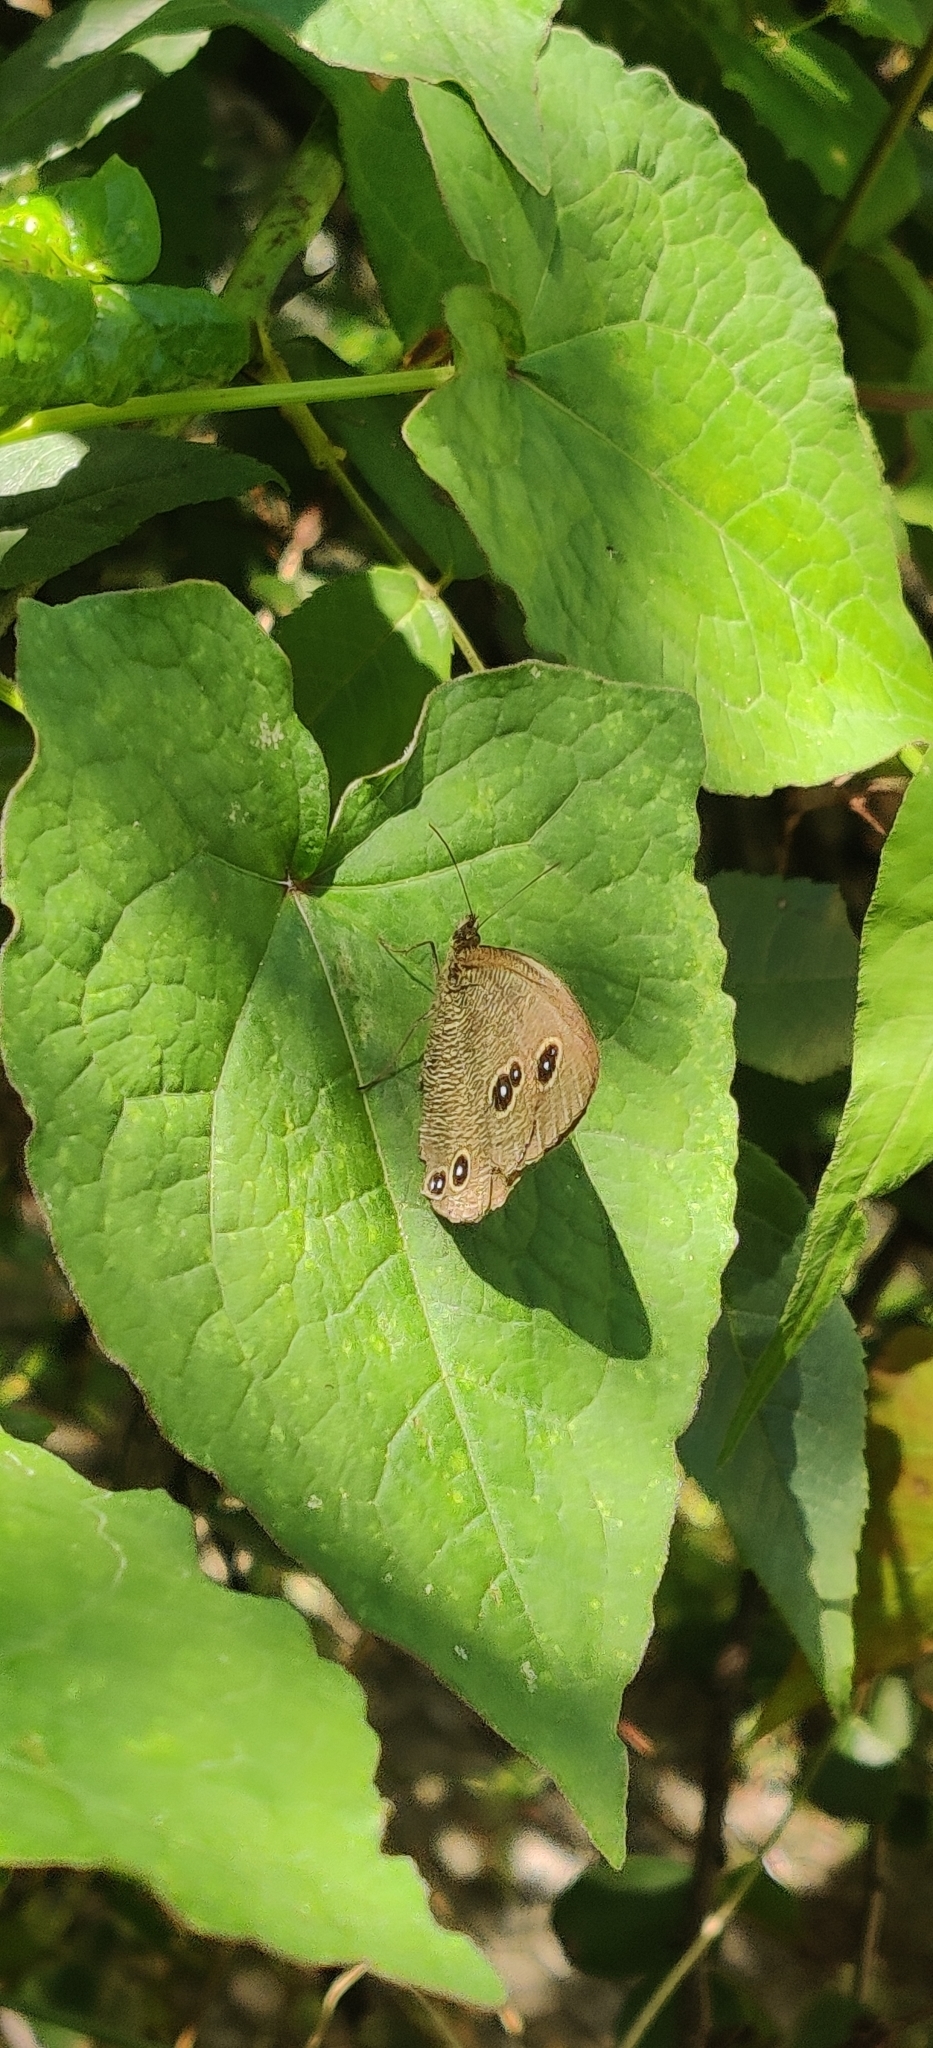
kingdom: Animalia
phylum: Arthropoda
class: Insecta
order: Lepidoptera
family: Nymphalidae
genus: Ypthima
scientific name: Ypthima nikaea
